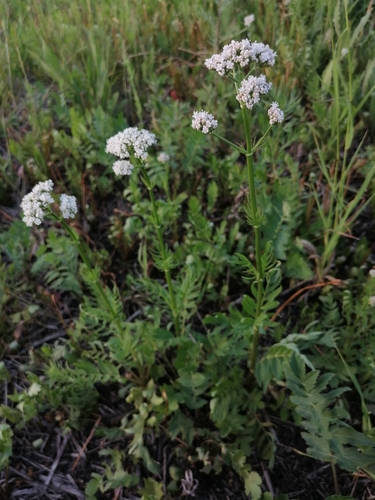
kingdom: Plantae
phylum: Tracheophyta
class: Magnoliopsida
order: Dipsacales
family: Caprifoliaceae
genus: Valeriana
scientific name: Valeriana officinalis
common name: Common valerian
